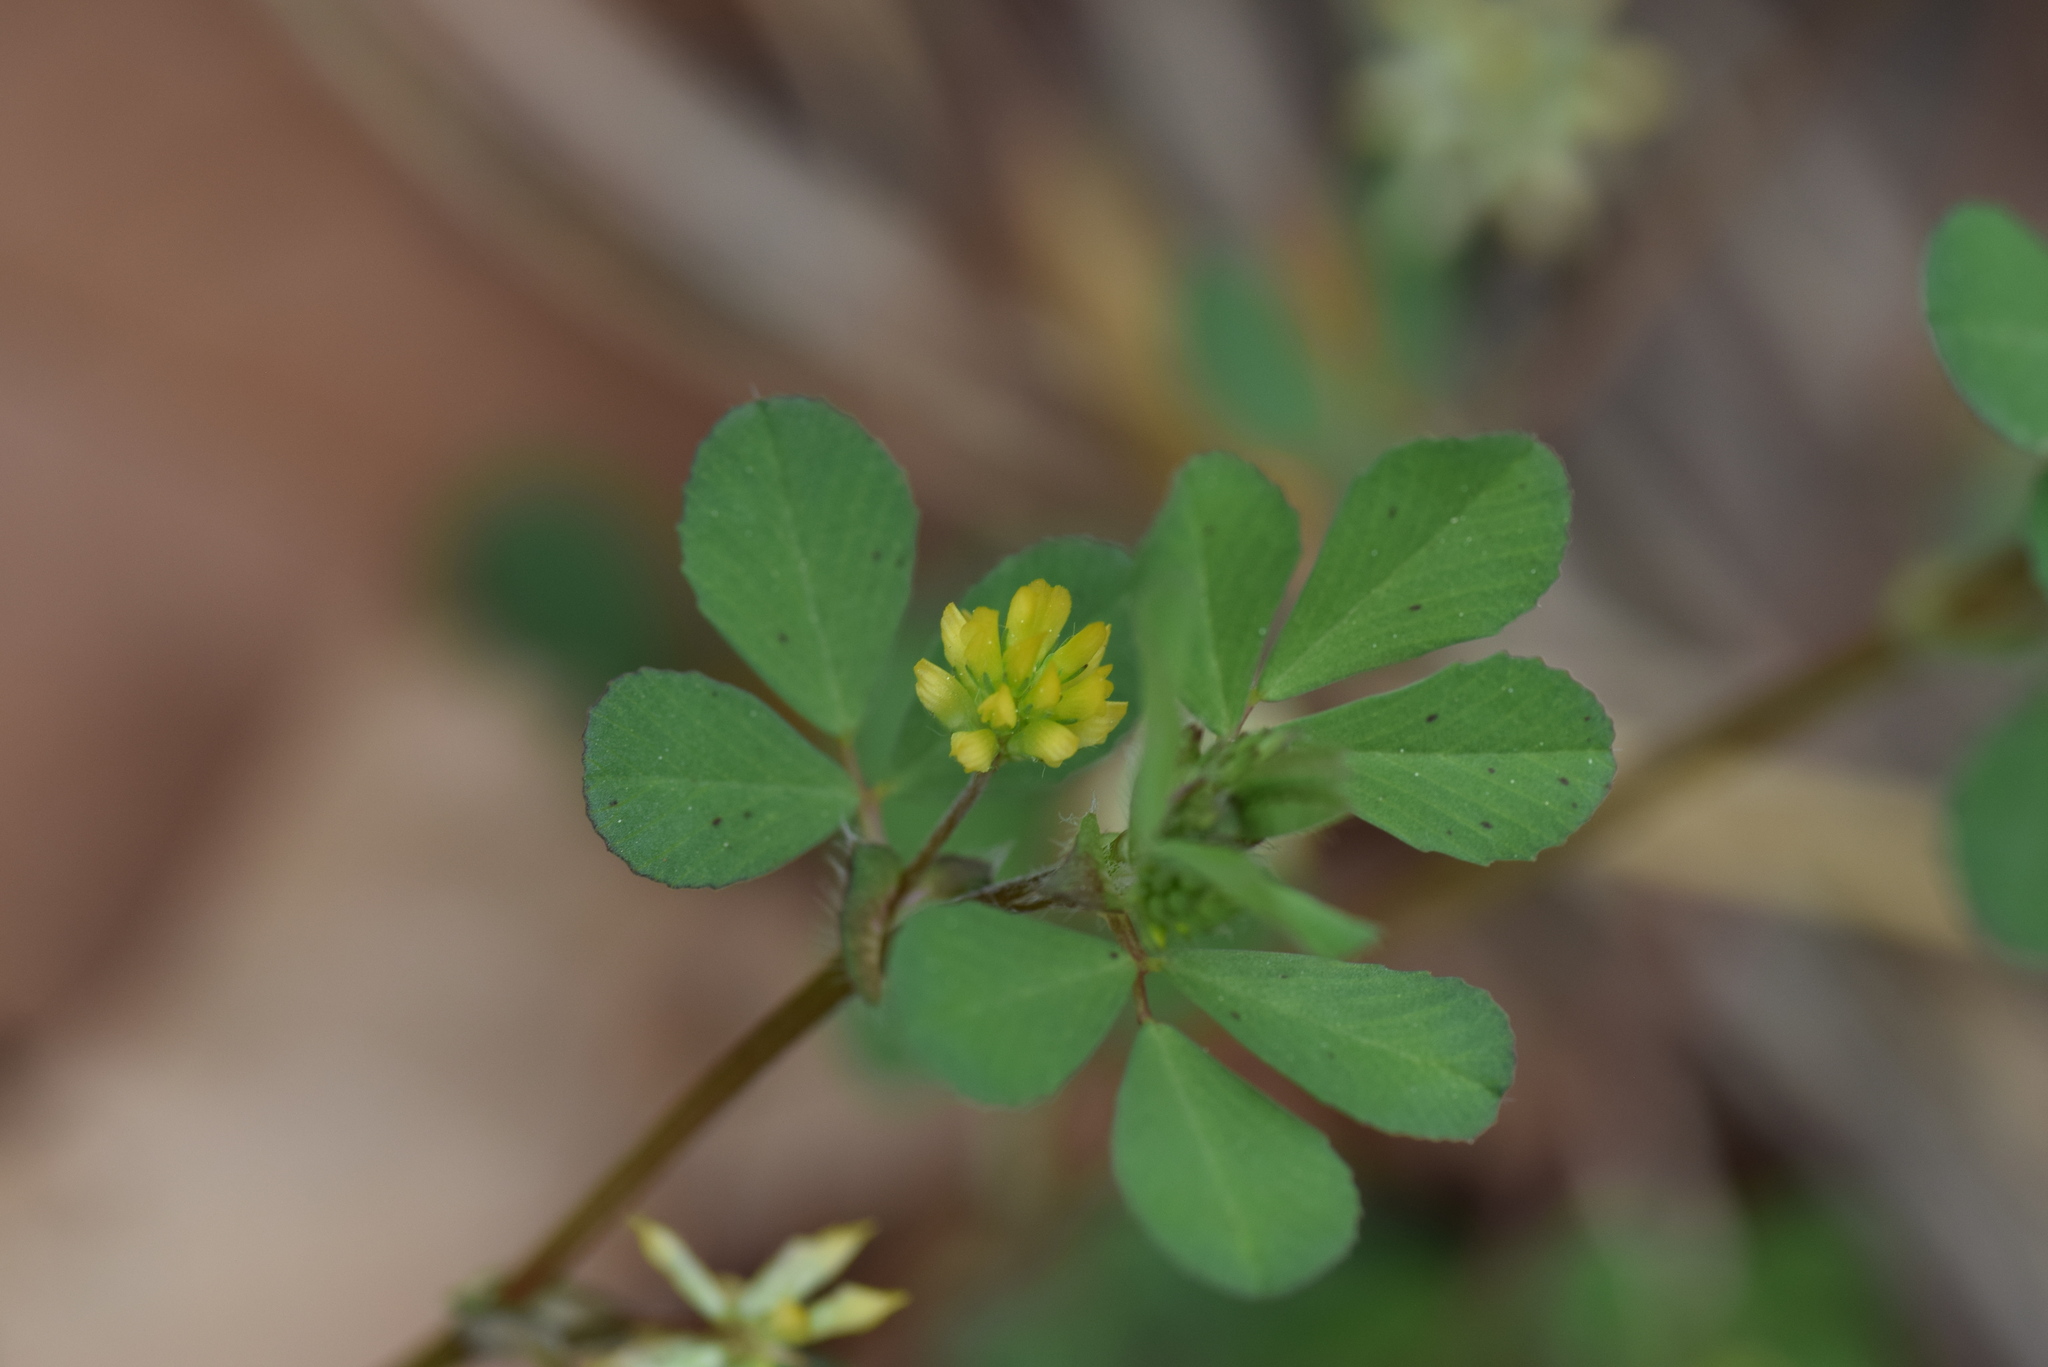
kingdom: Plantae
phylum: Tracheophyta
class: Magnoliopsida
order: Fabales
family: Fabaceae
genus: Trifolium
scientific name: Trifolium dubium
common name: Suckling clover
